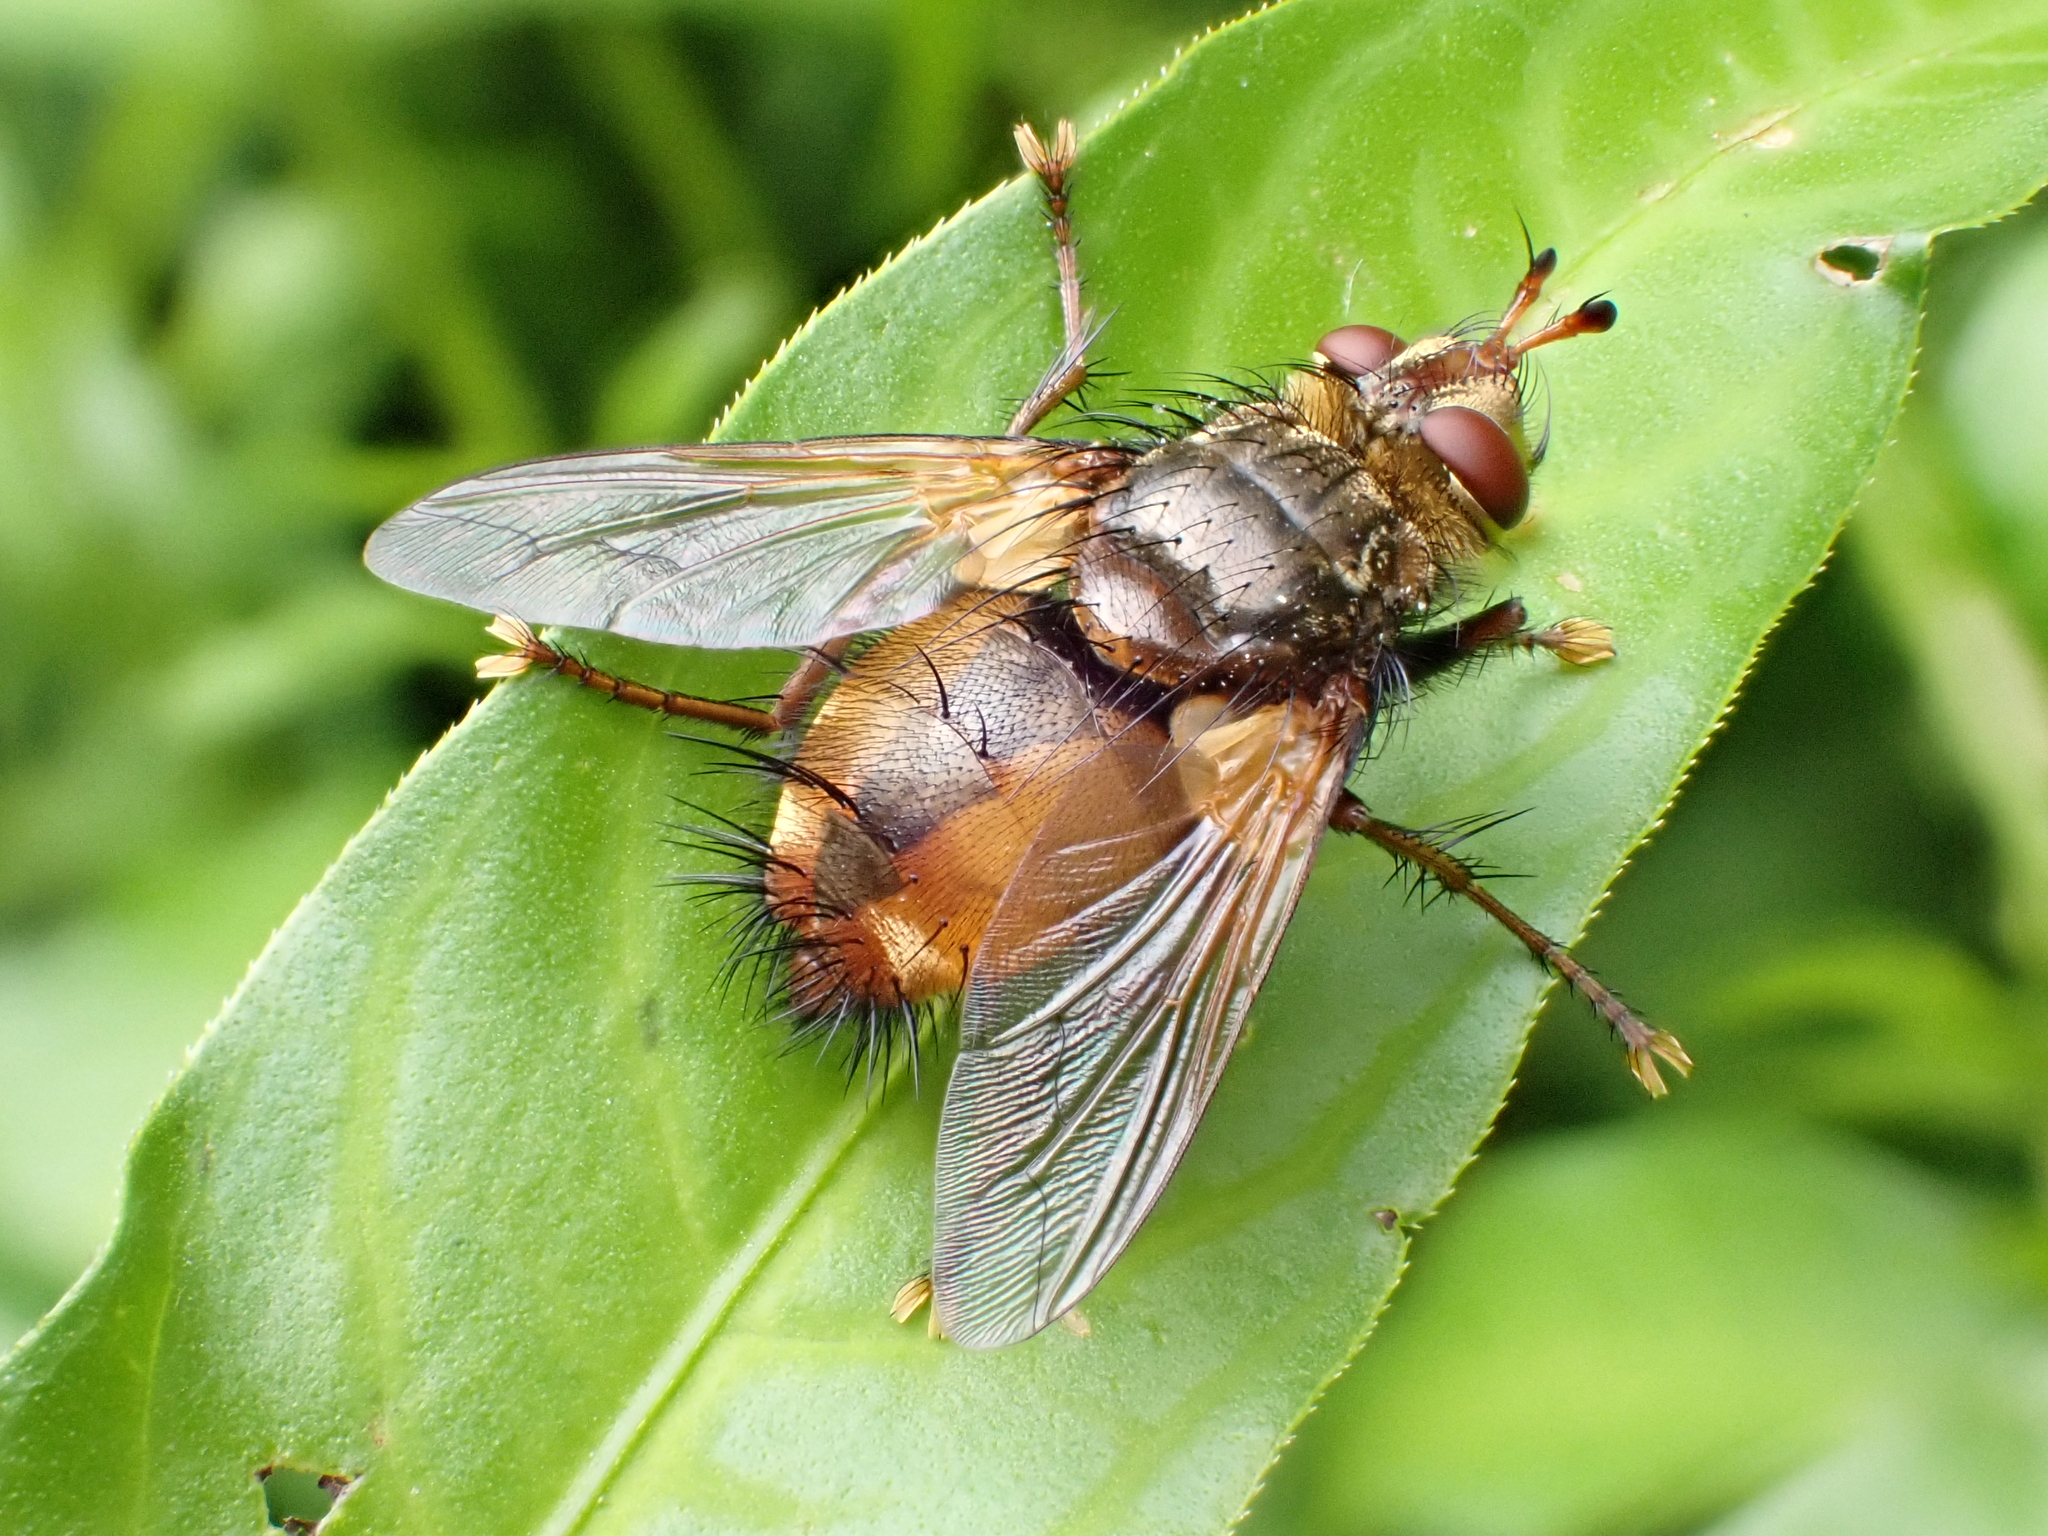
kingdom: Animalia
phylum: Arthropoda
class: Insecta
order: Diptera
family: Tachinidae
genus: Tachina
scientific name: Tachina fera
